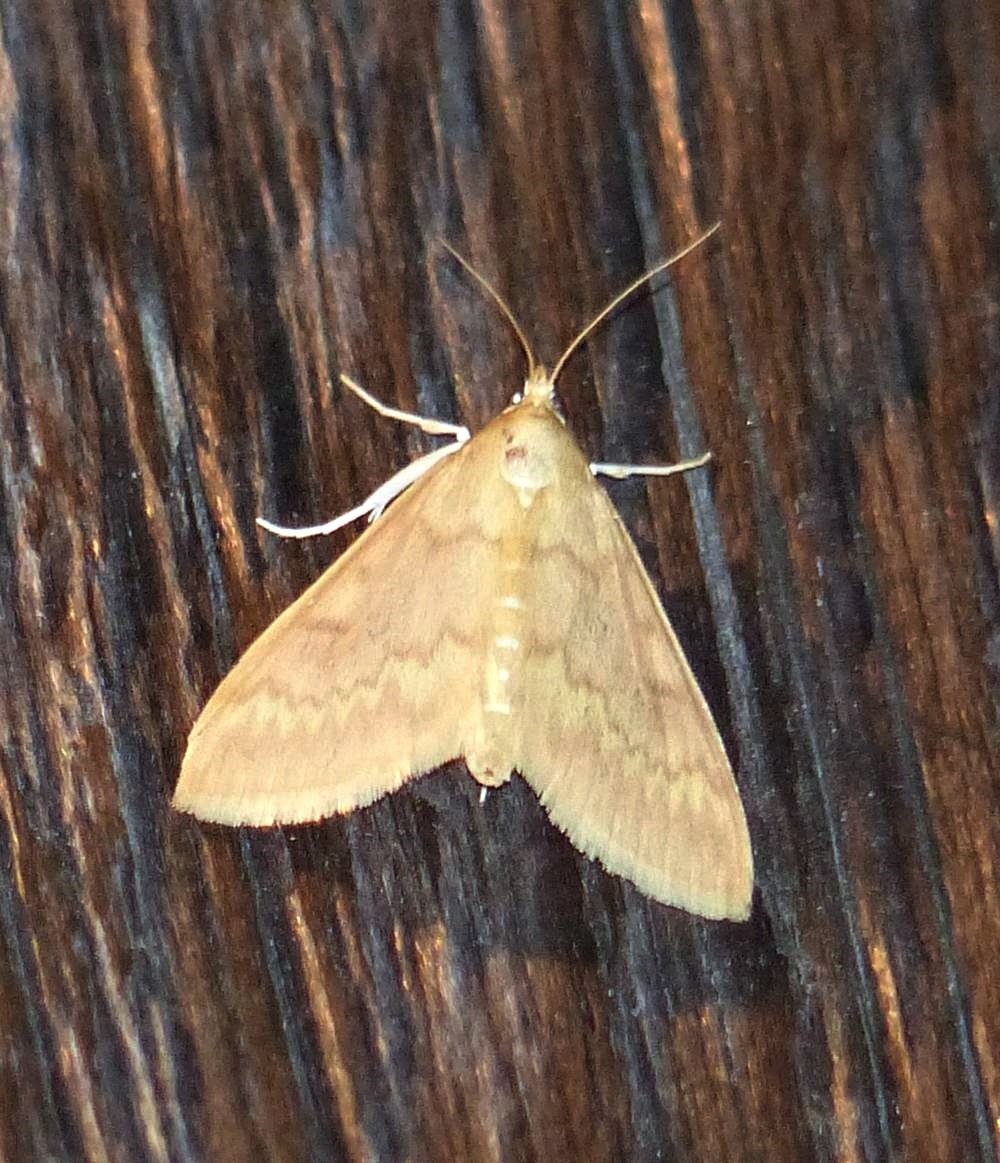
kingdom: Animalia
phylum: Arthropoda
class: Insecta
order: Lepidoptera
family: Crambidae
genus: Ostrinia
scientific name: Ostrinia nubilalis
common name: European corn borer
